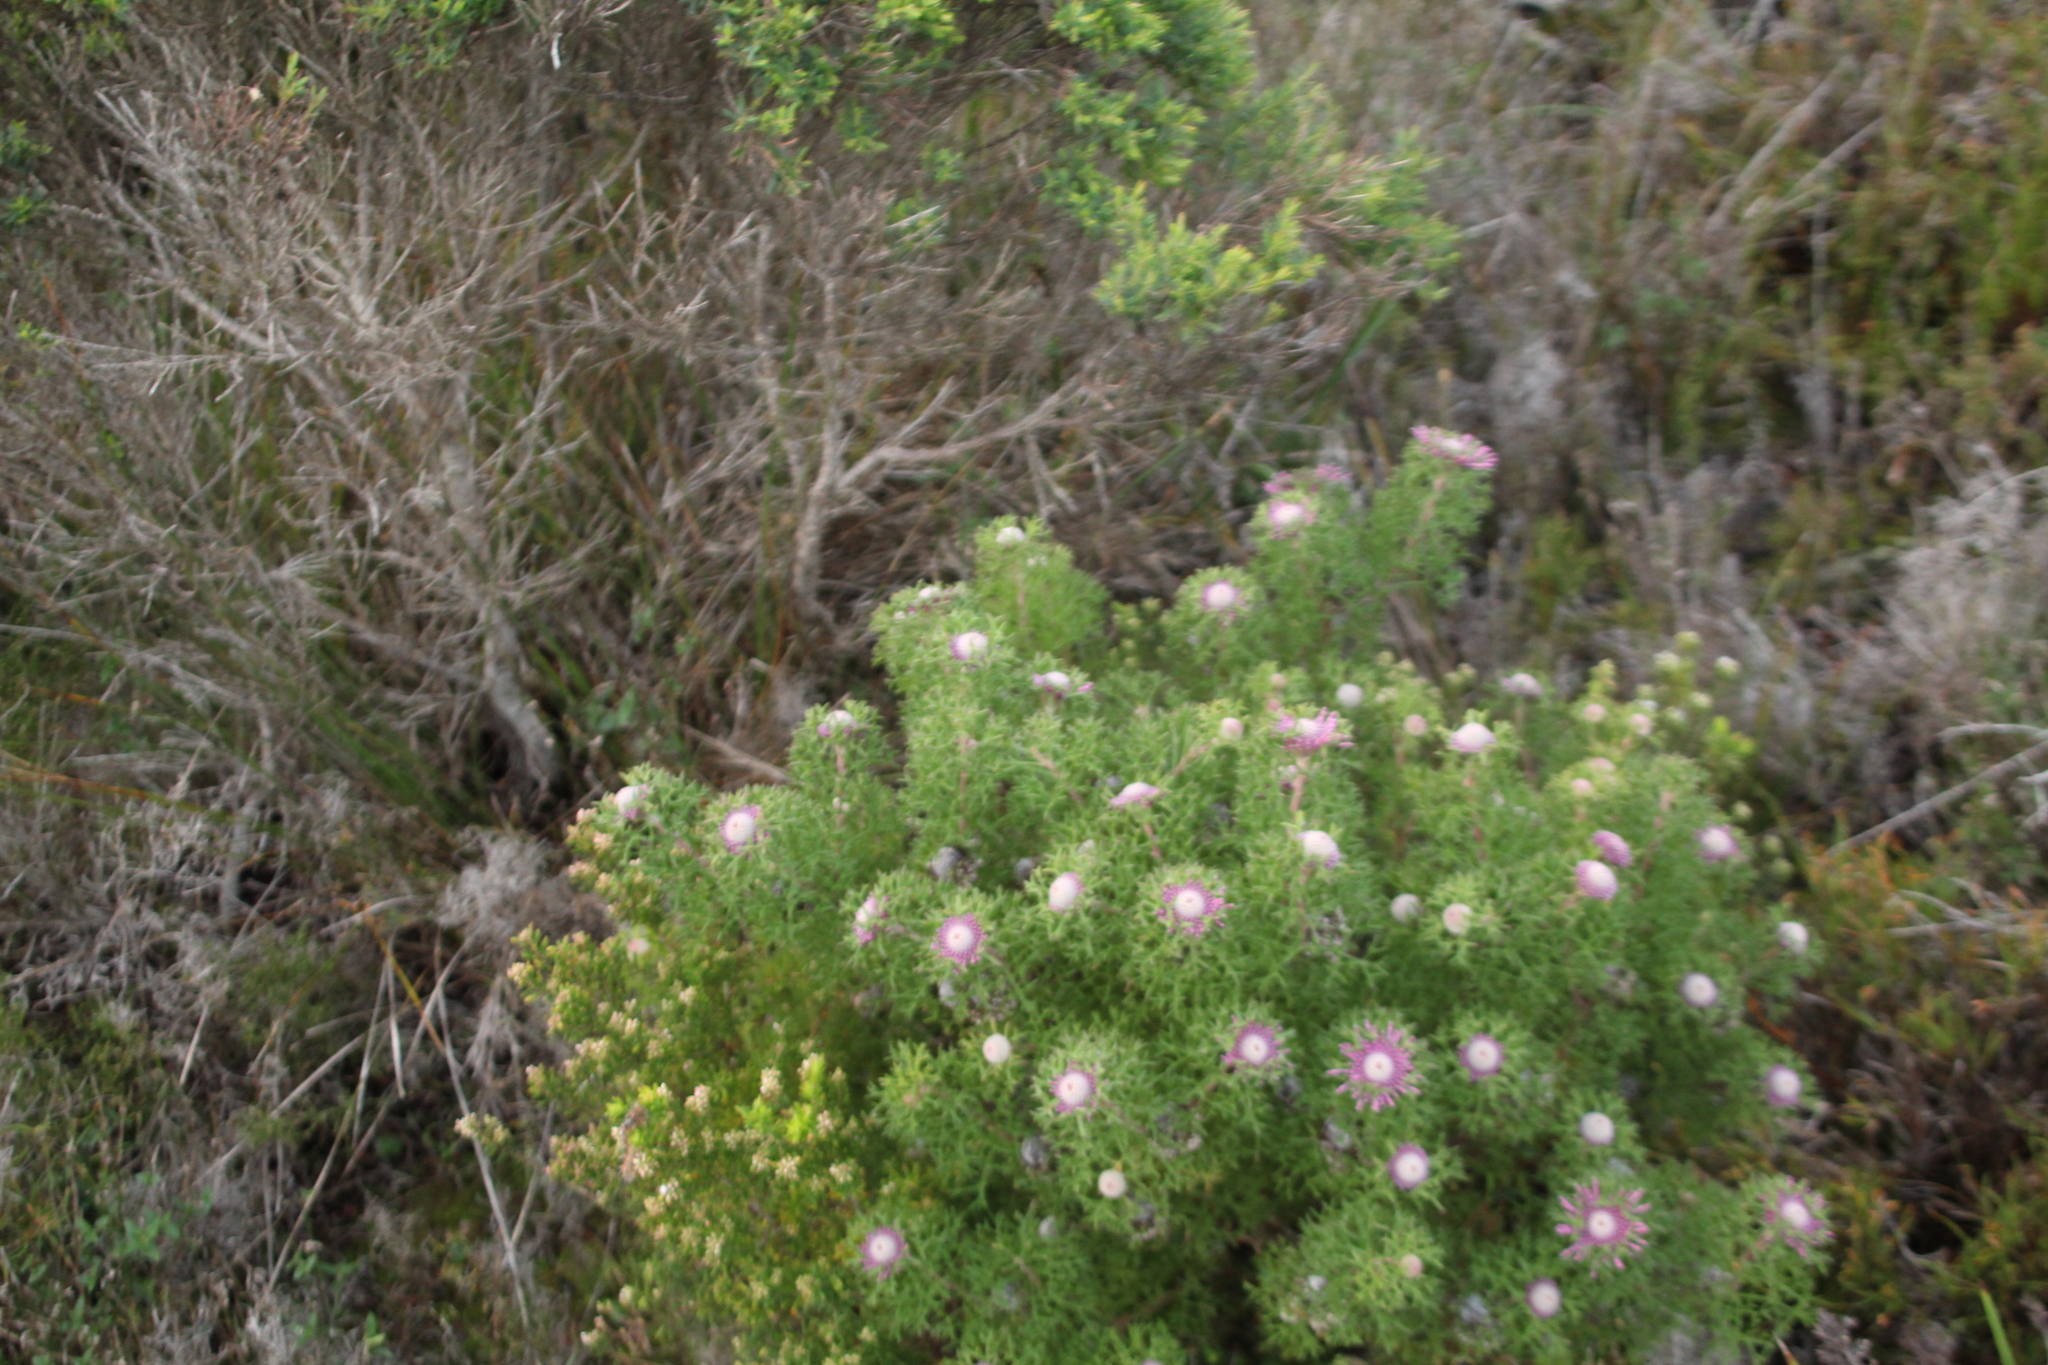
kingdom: Plantae
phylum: Tracheophyta
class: Magnoliopsida
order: Proteales
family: Proteaceae
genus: Isopogon
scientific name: Isopogon formosus
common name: Rose-coneflower
